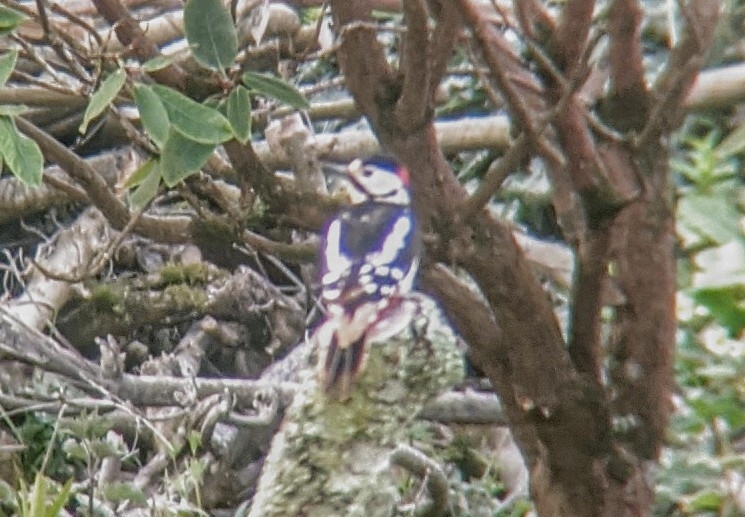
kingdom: Animalia
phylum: Chordata
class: Aves
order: Piciformes
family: Picidae
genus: Dendrocopos
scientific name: Dendrocopos major
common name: Great spotted woodpecker
